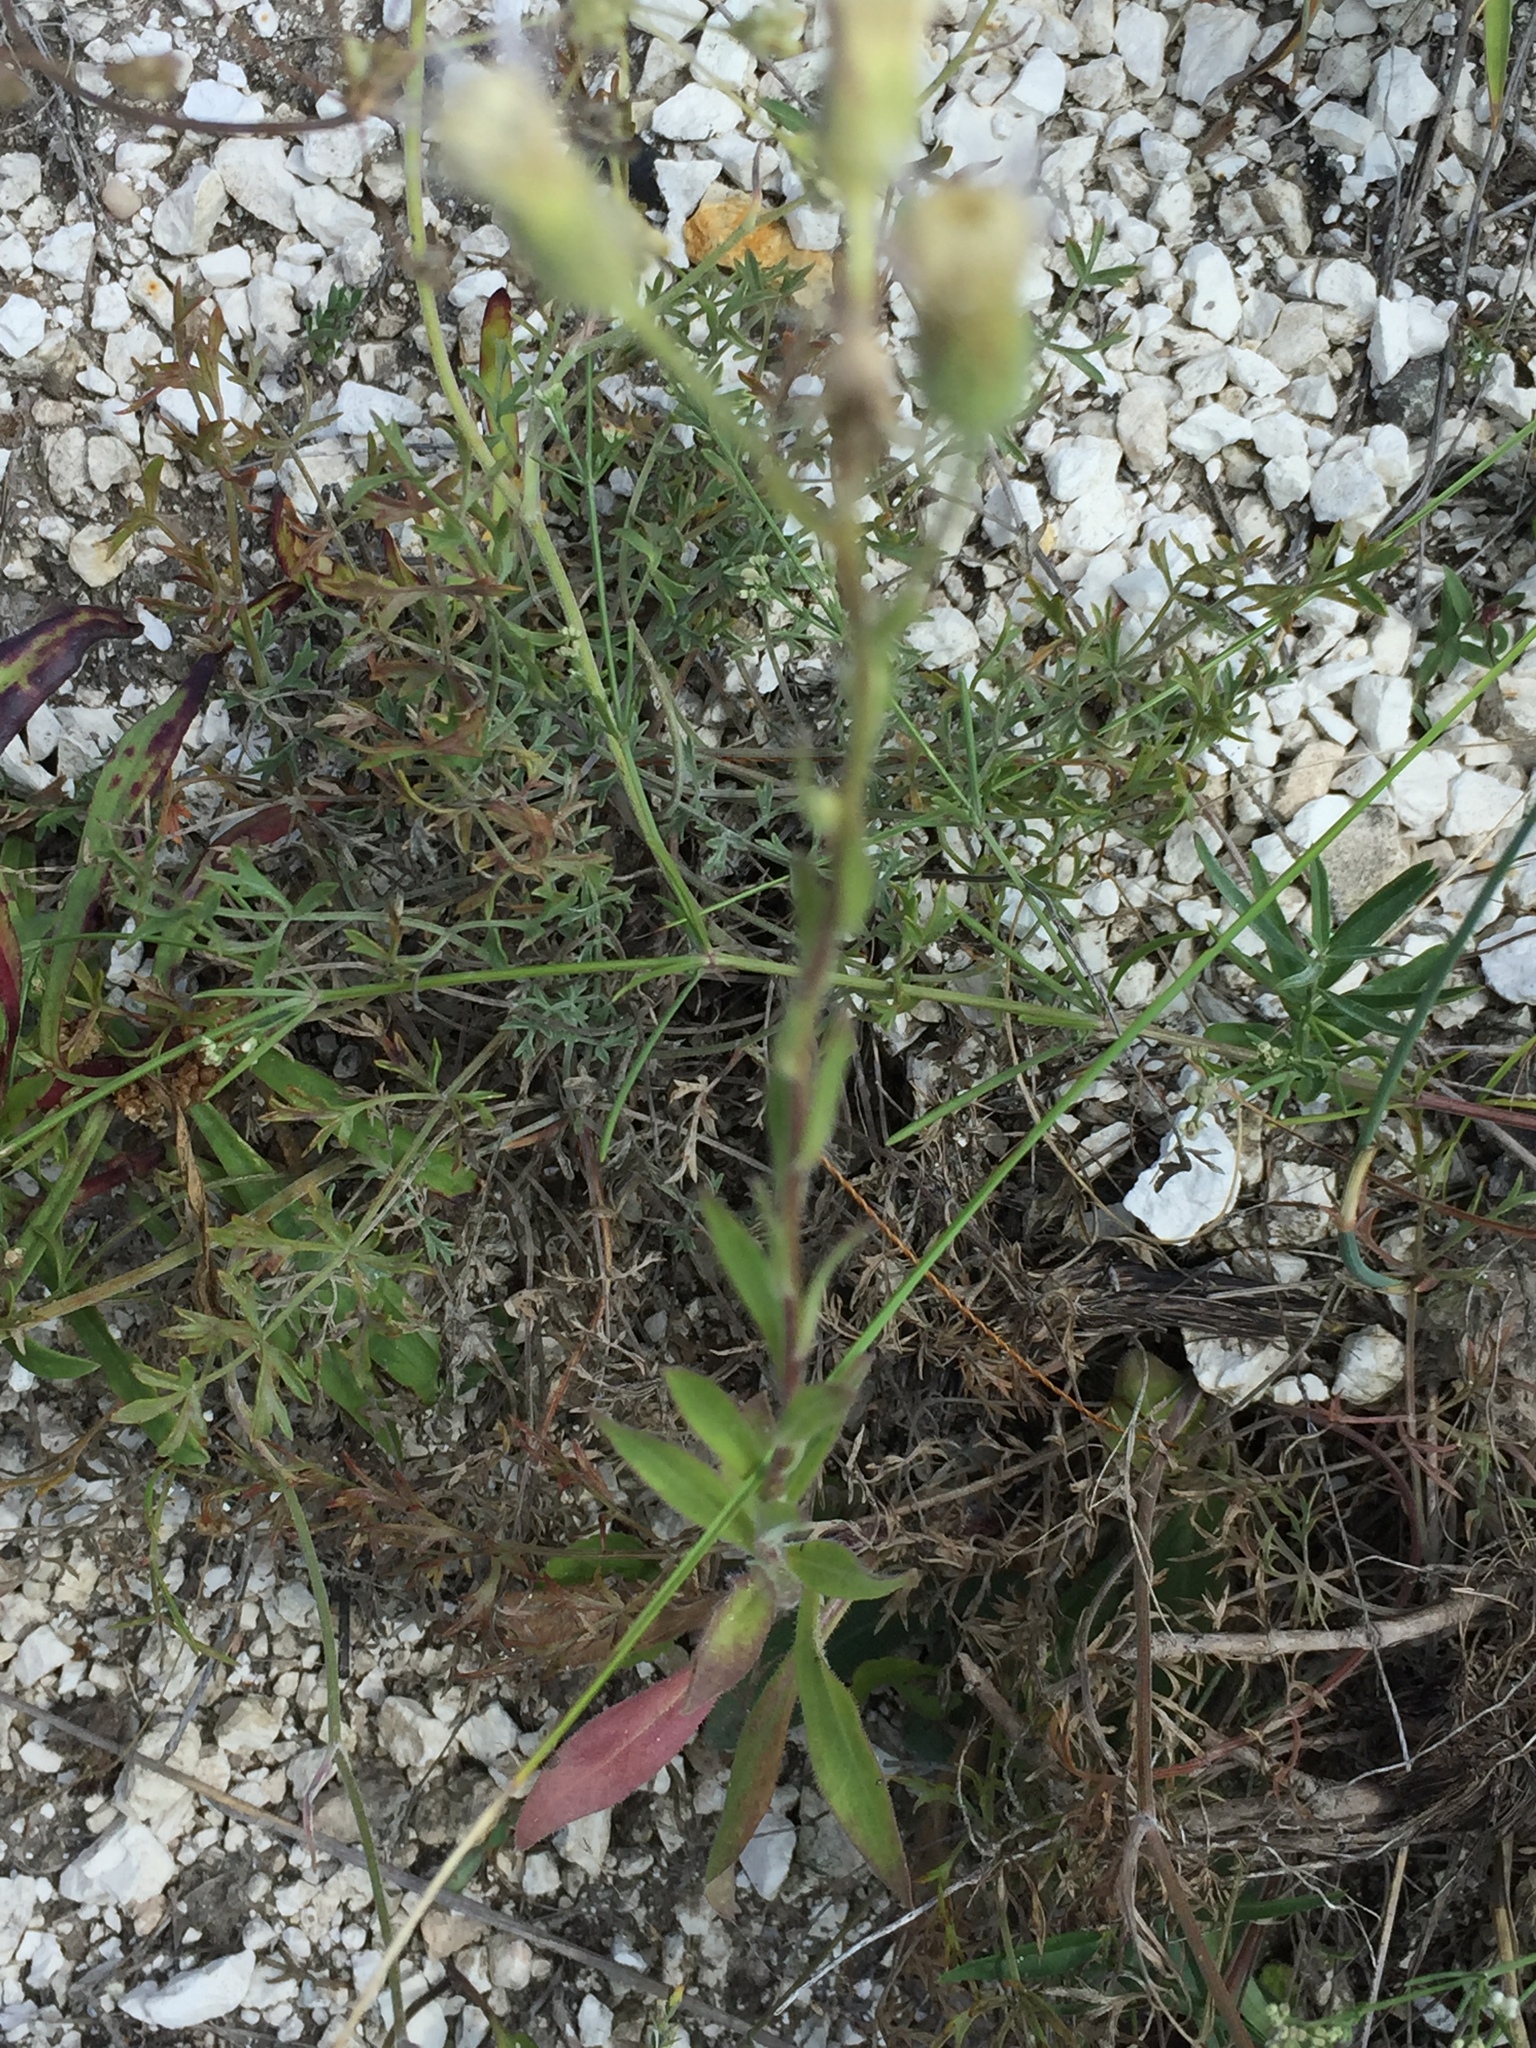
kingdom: Plantae
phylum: Tracheophyta
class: Magnoliopsida
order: Asterales
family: Asteraceae
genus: Erigeron
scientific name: Erigeron acris
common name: Blue fleabane
